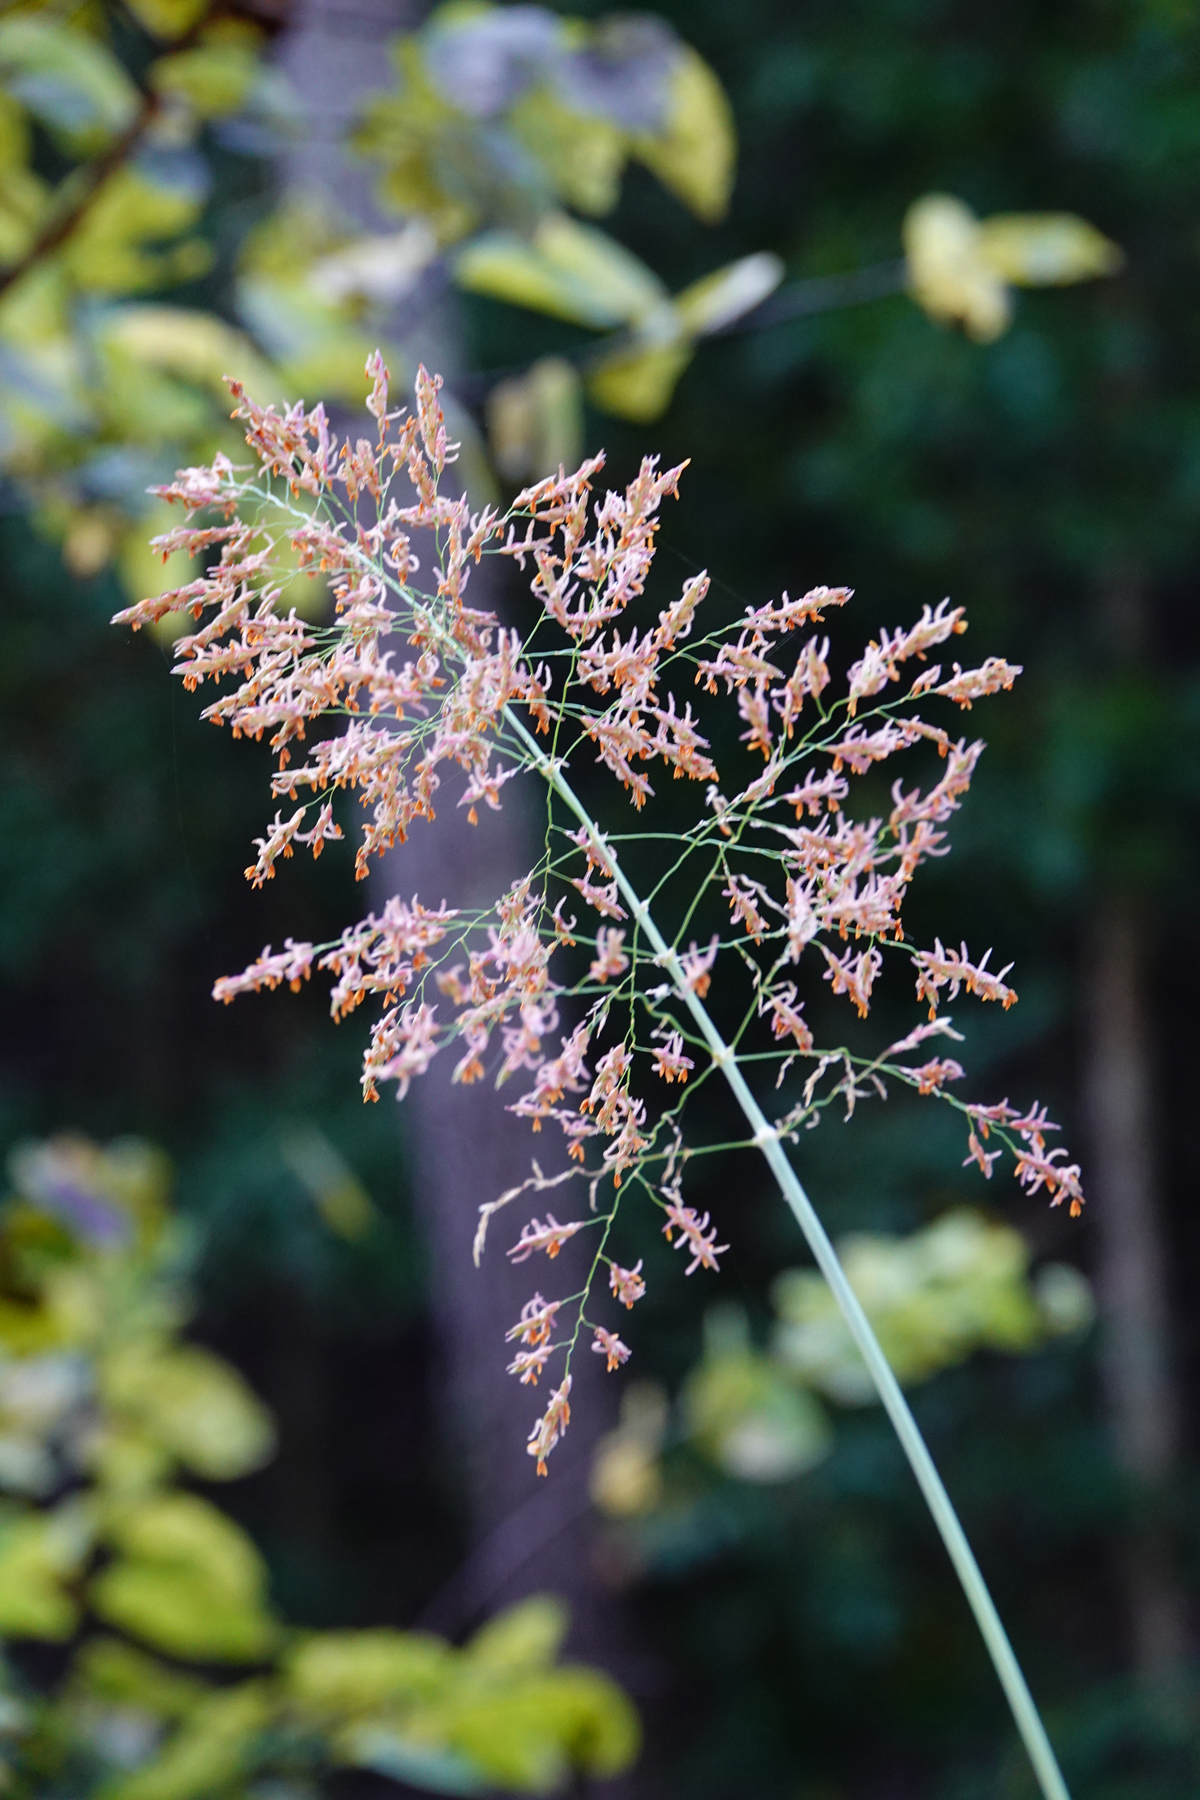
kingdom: Plantae
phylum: Tracheophyta
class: Liliopsida
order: Poales
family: Poaceae
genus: Sorghum
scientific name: Sorghum halepense
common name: Johnson-grass
